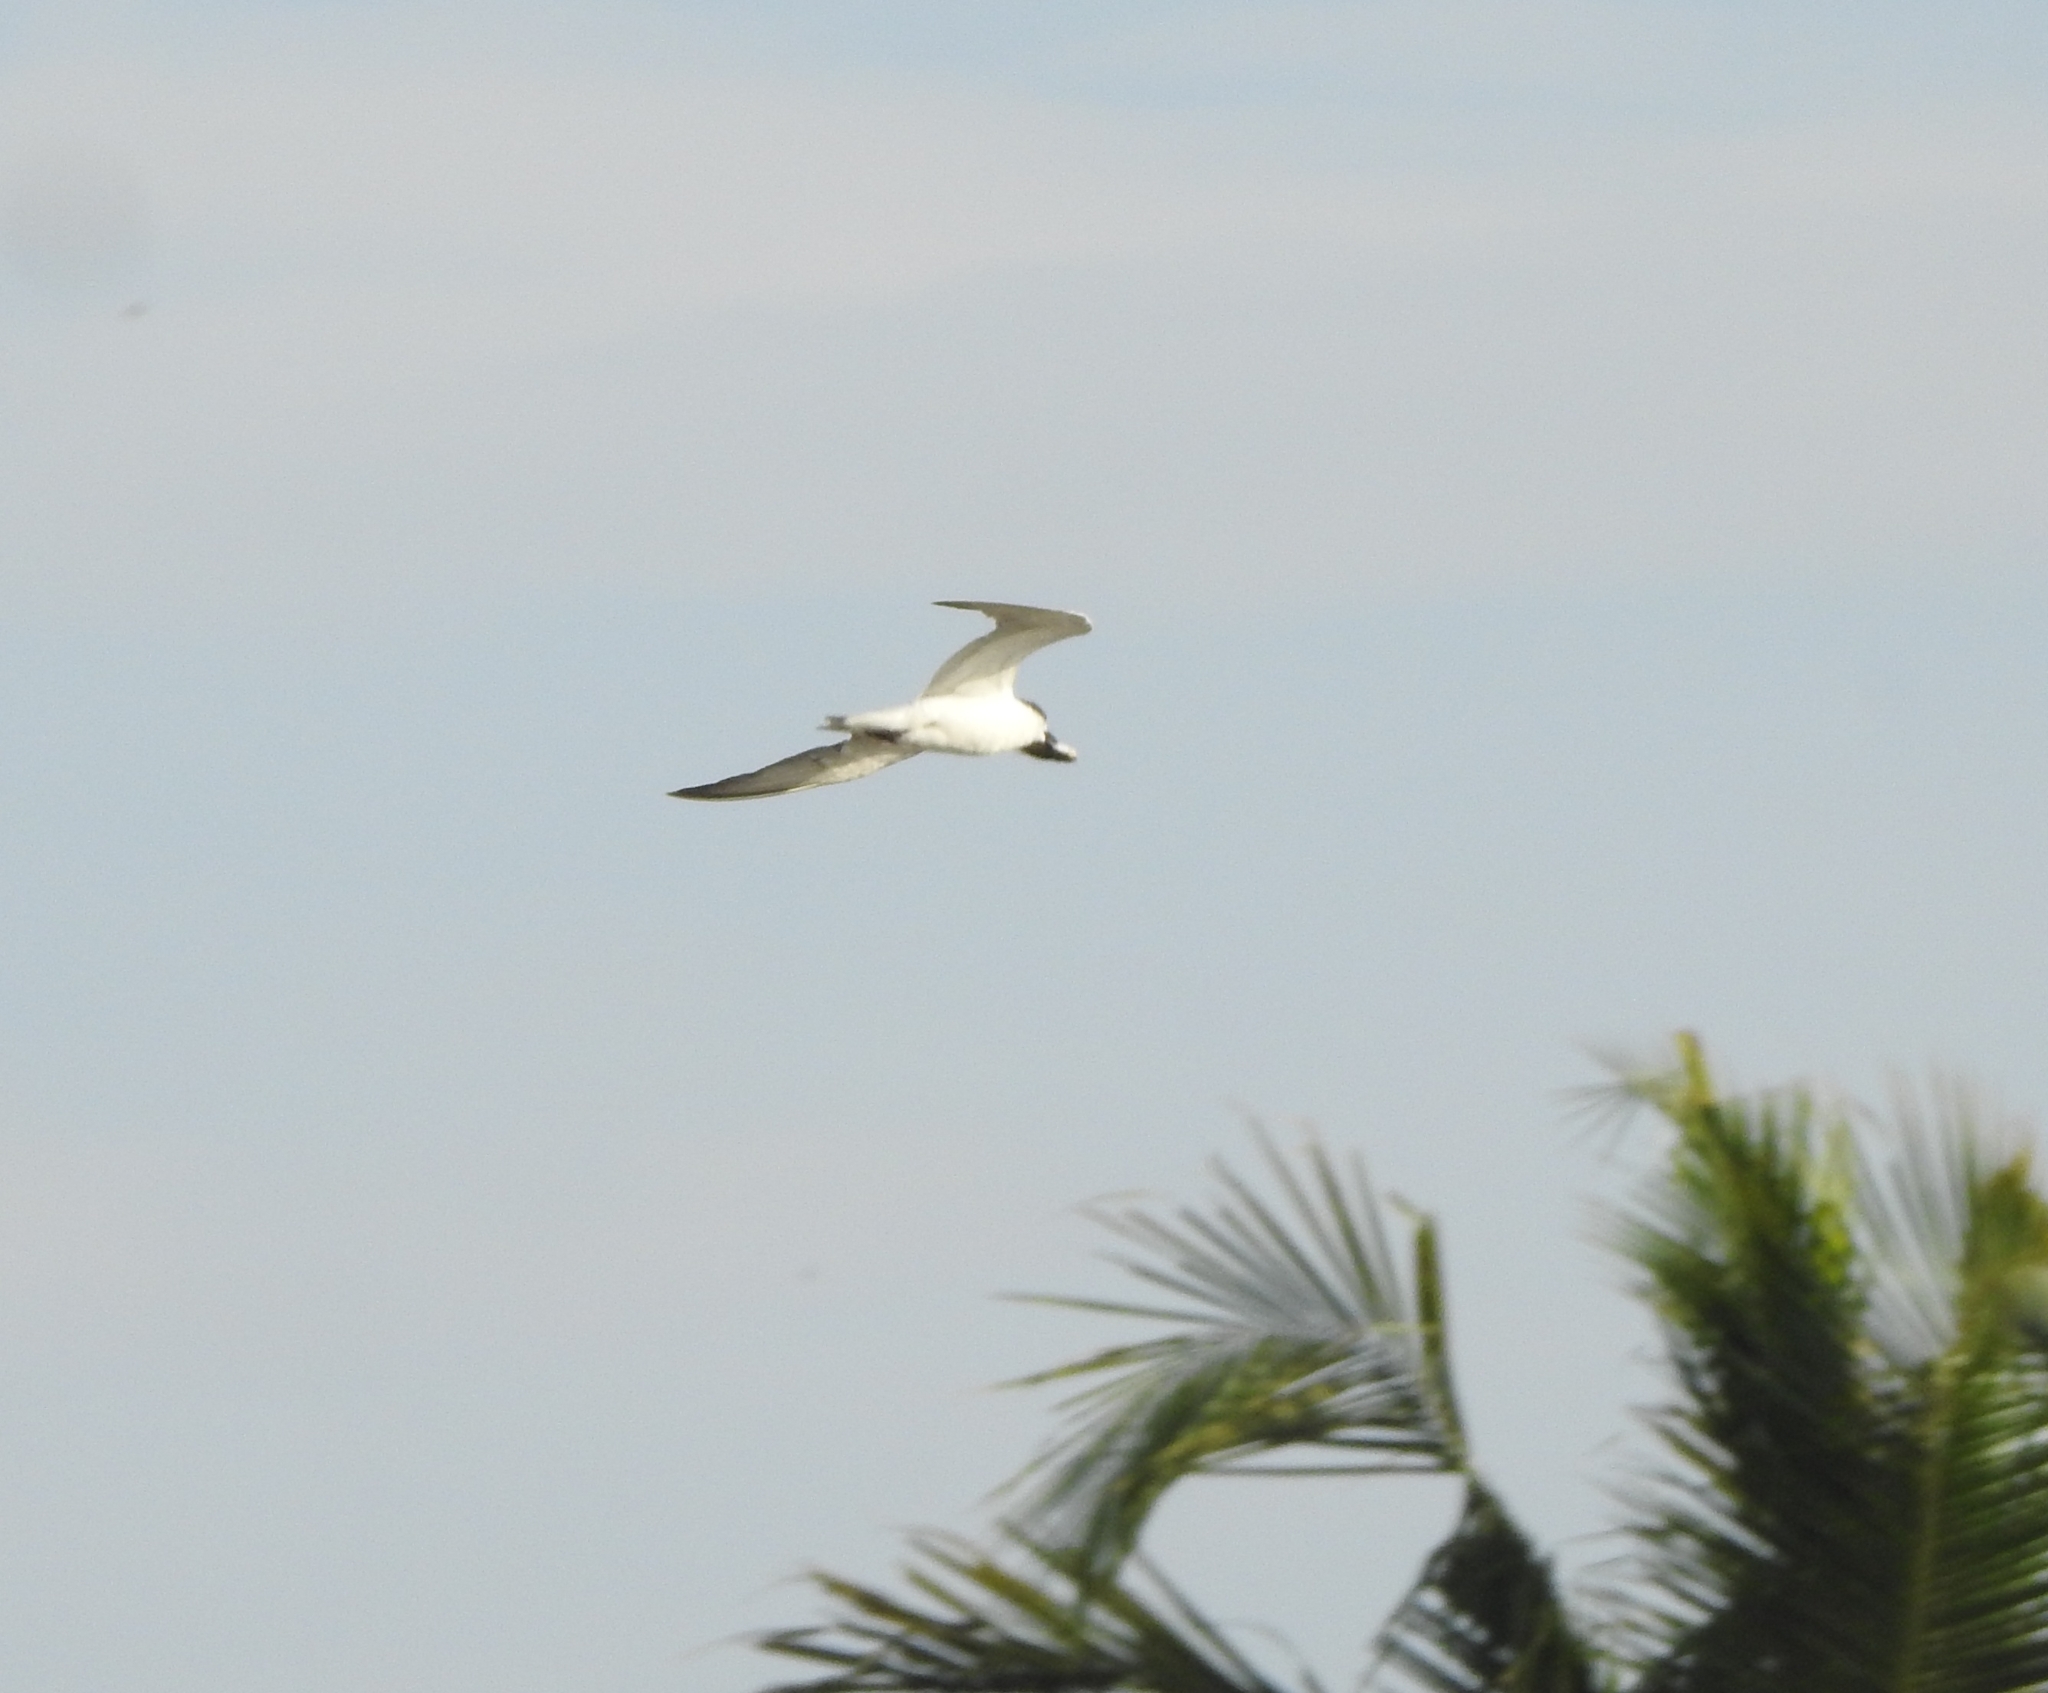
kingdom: Animalia
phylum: Chordata
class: Aves
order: Charadriiformes
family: Laridae
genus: Chlidonias
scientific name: Chlidonias hybrida
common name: Whiskered tern
